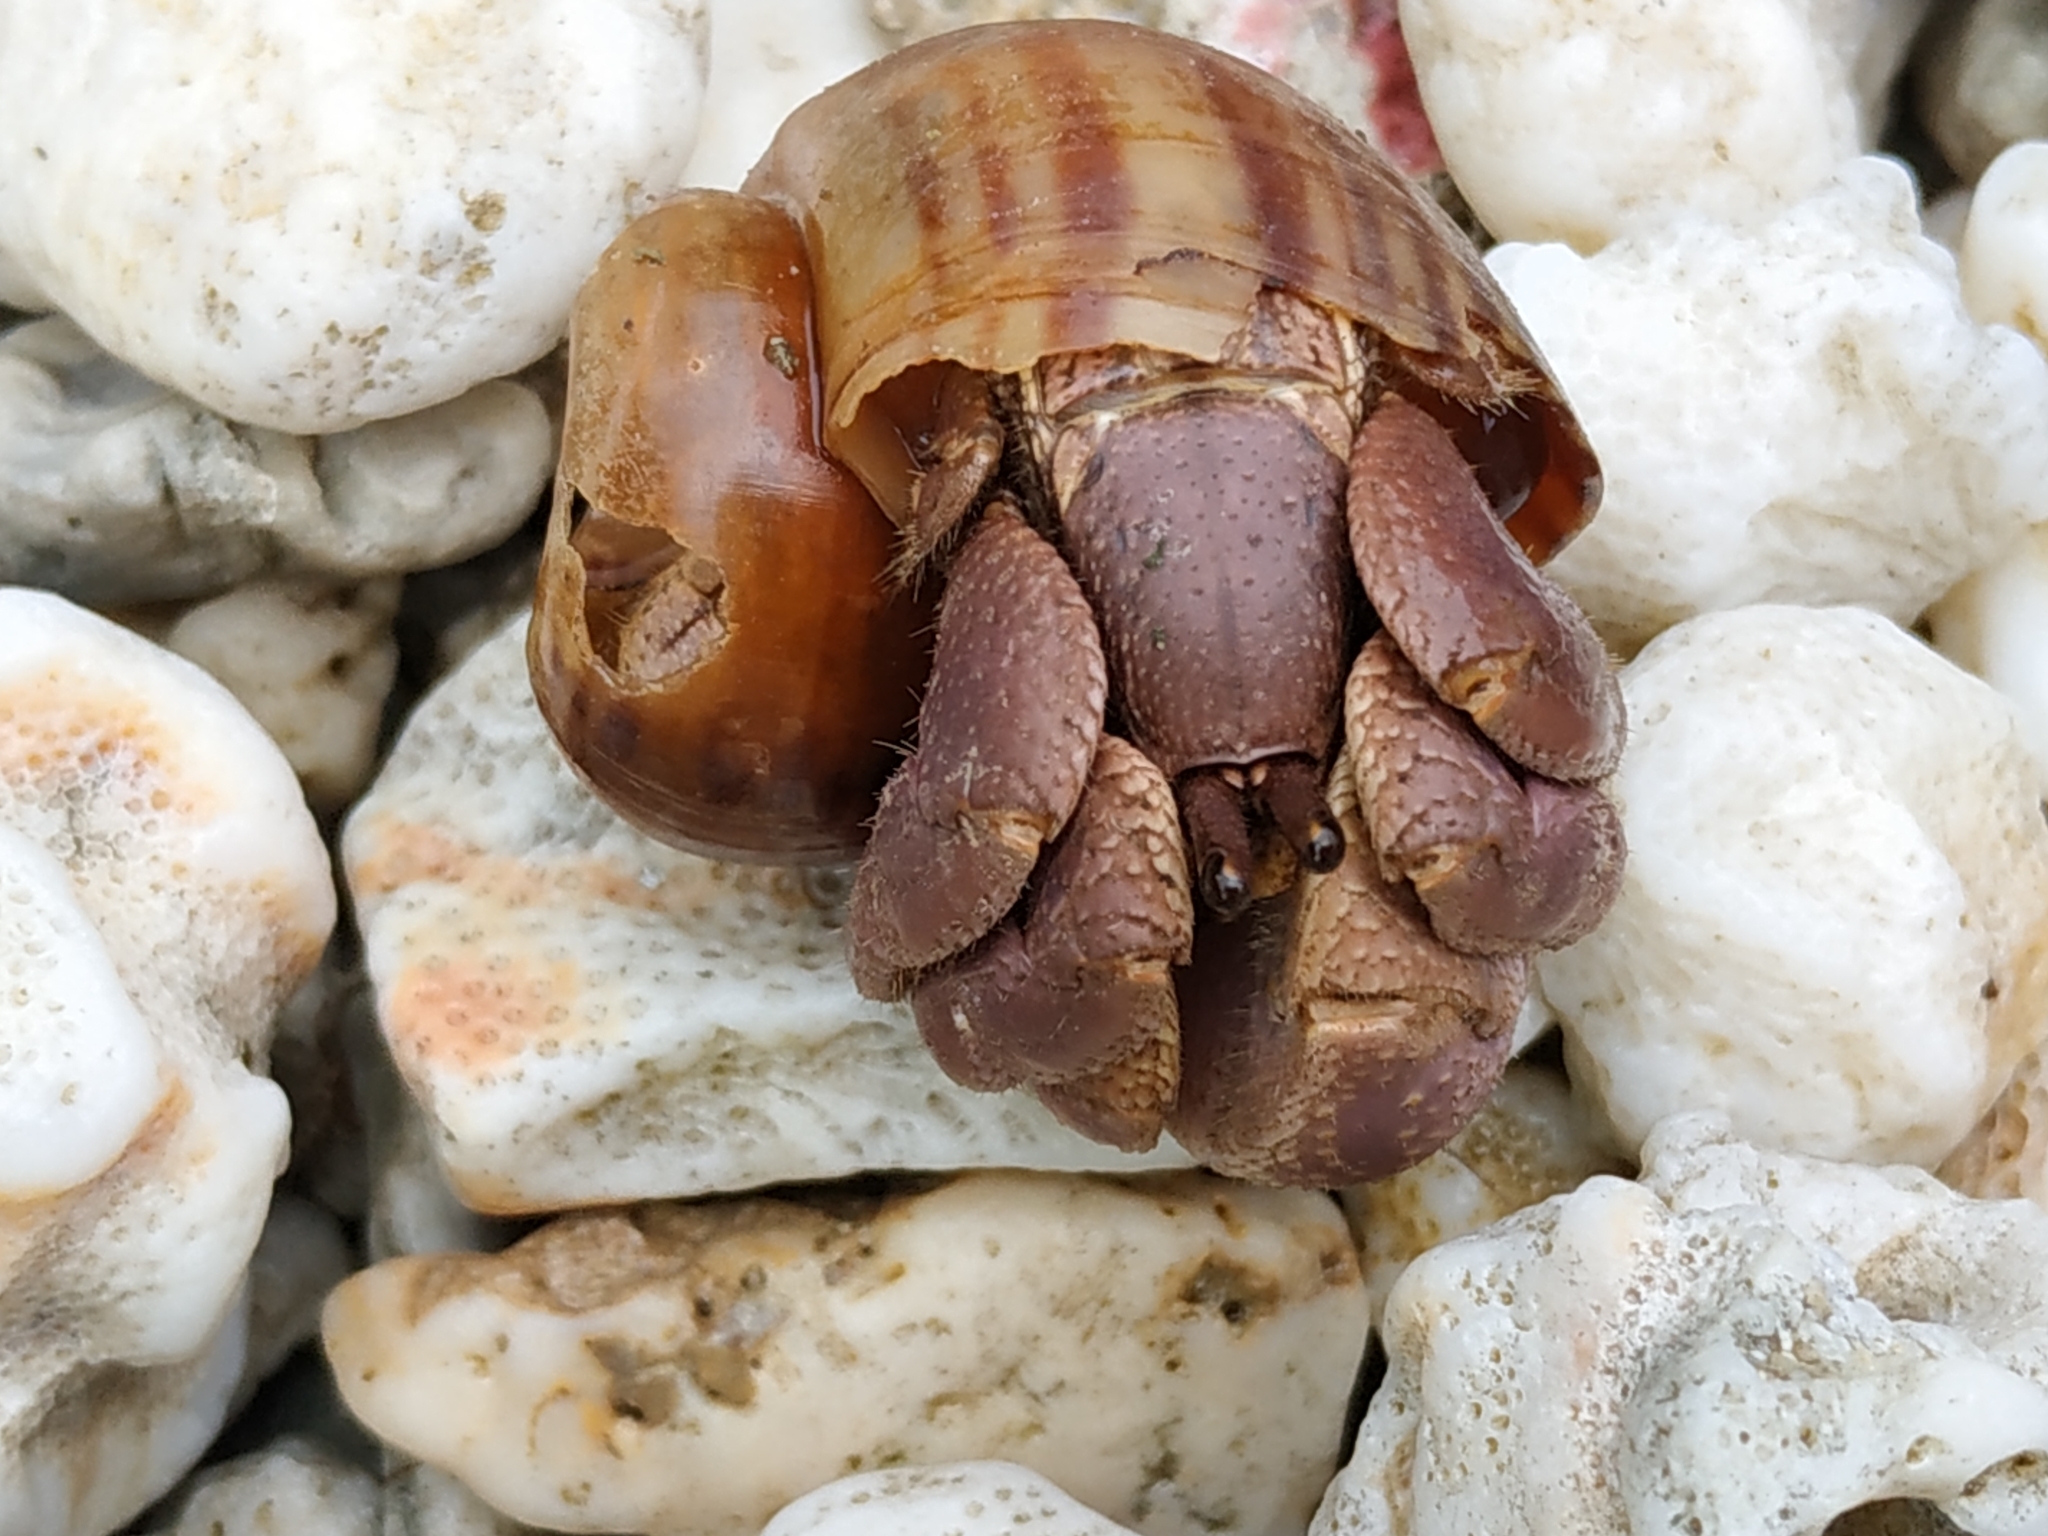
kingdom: Animalia
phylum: Arthropoda
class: Malacostraca
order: Decapoda
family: Coenobitidae
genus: Coenobita
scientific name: Coenobita brevimanus
